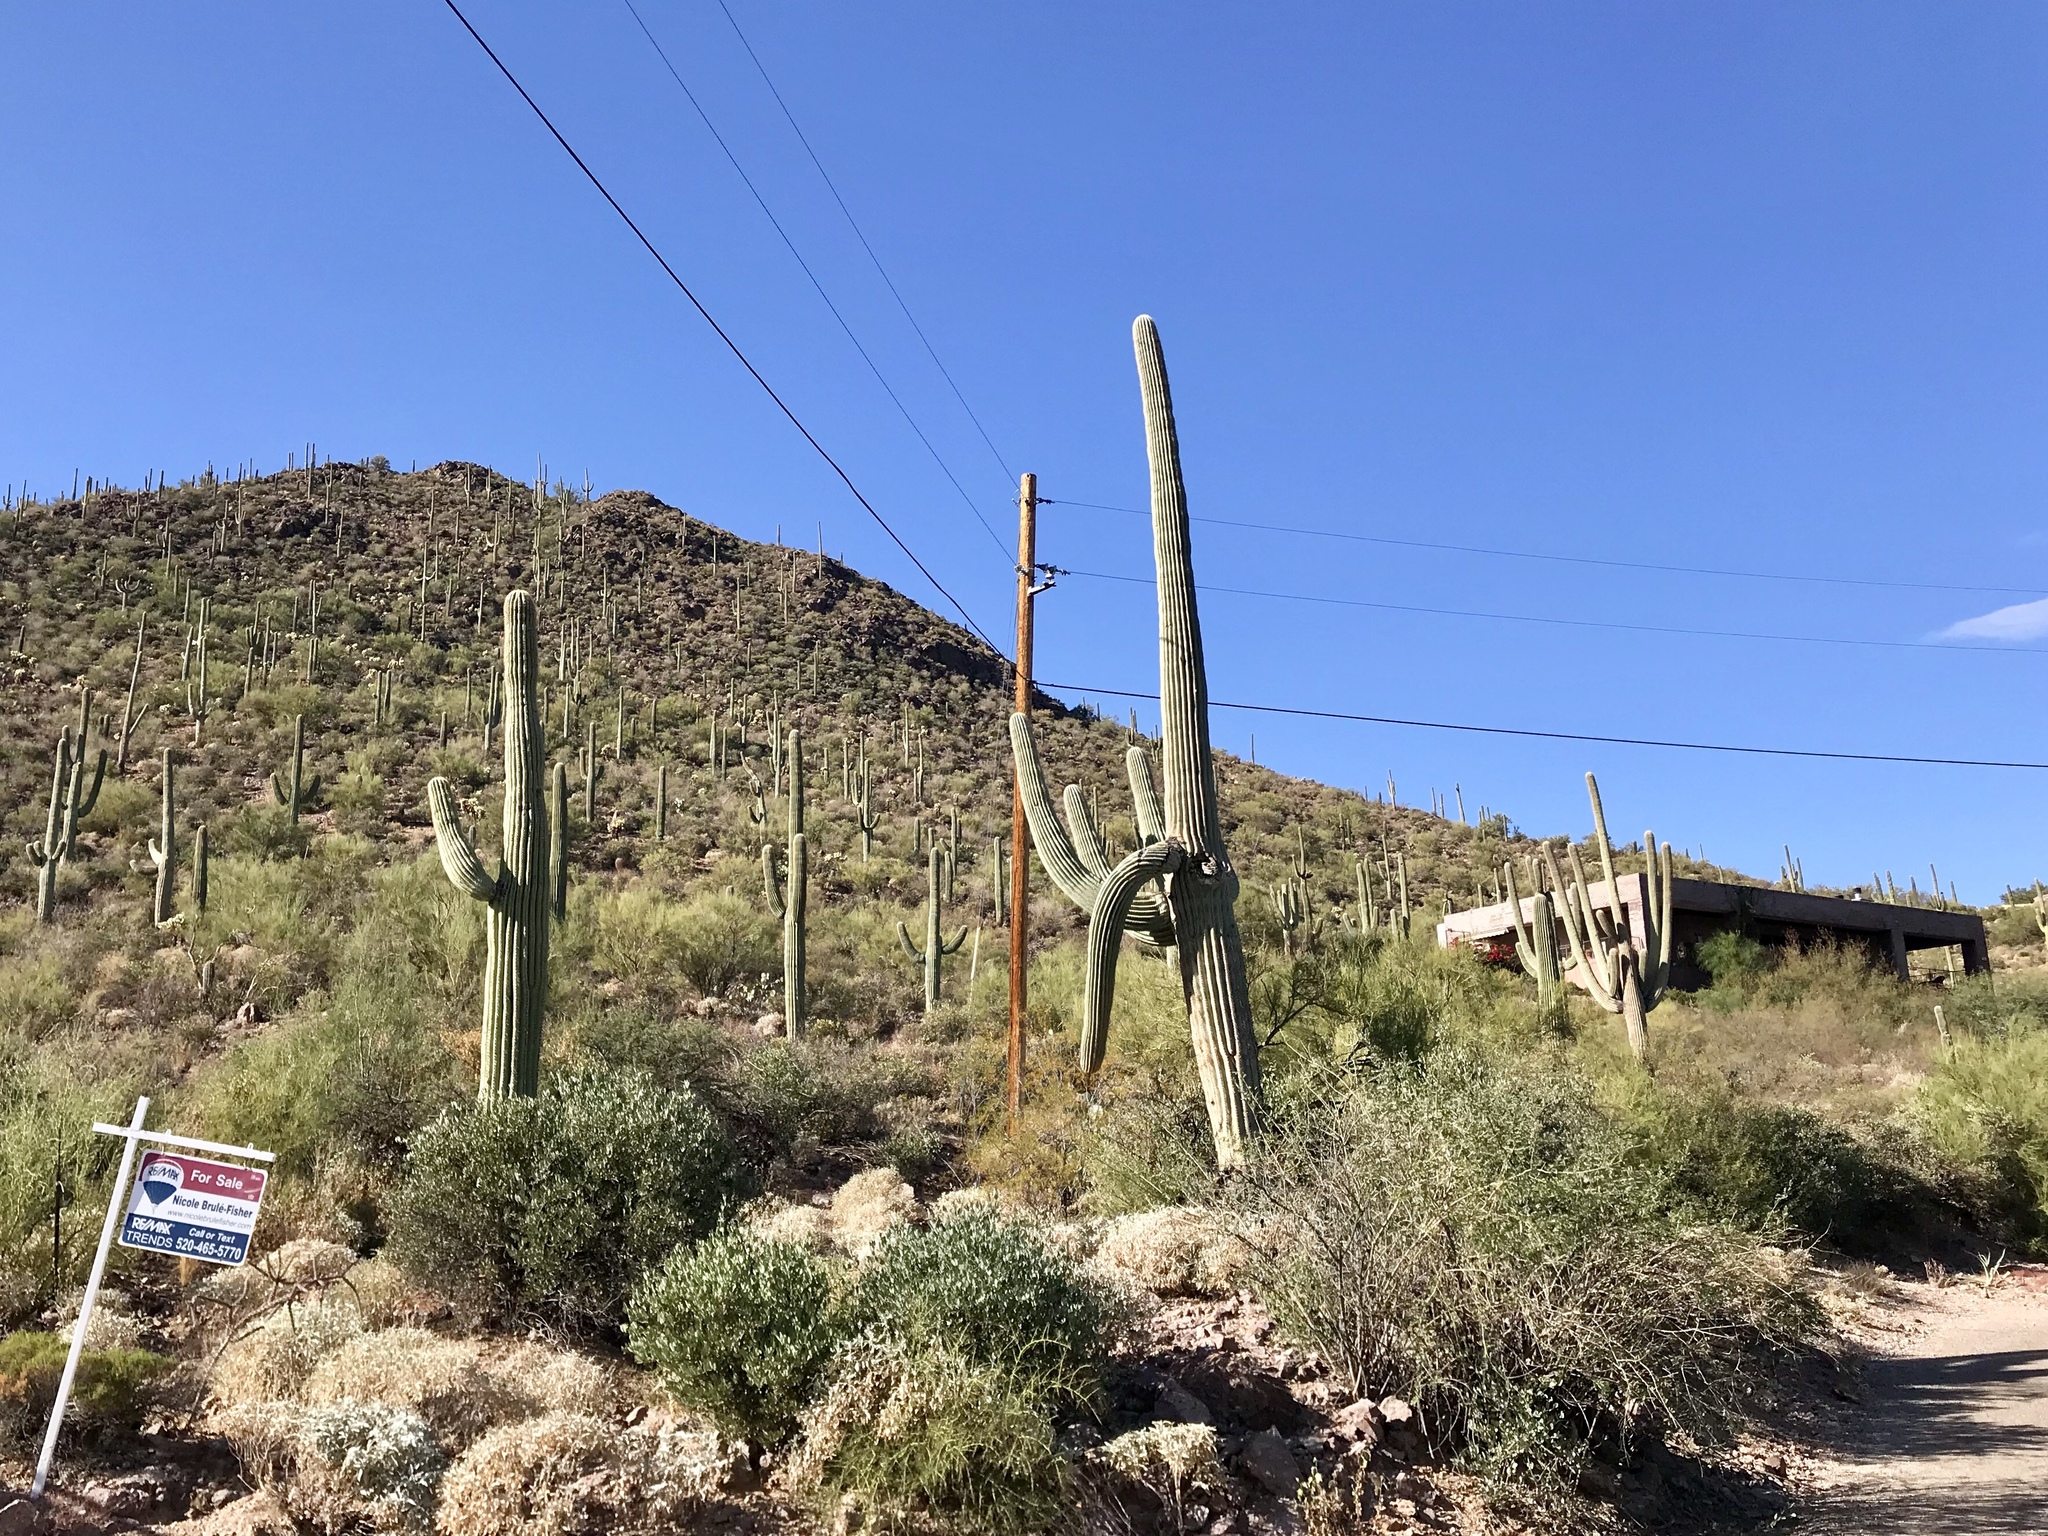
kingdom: Plantae
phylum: Tracheophyta
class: Magnoliopsida
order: Caryophyllales
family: Cactaceae
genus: Carnegiea
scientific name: Carnegiea gigantea
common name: Saguaro
